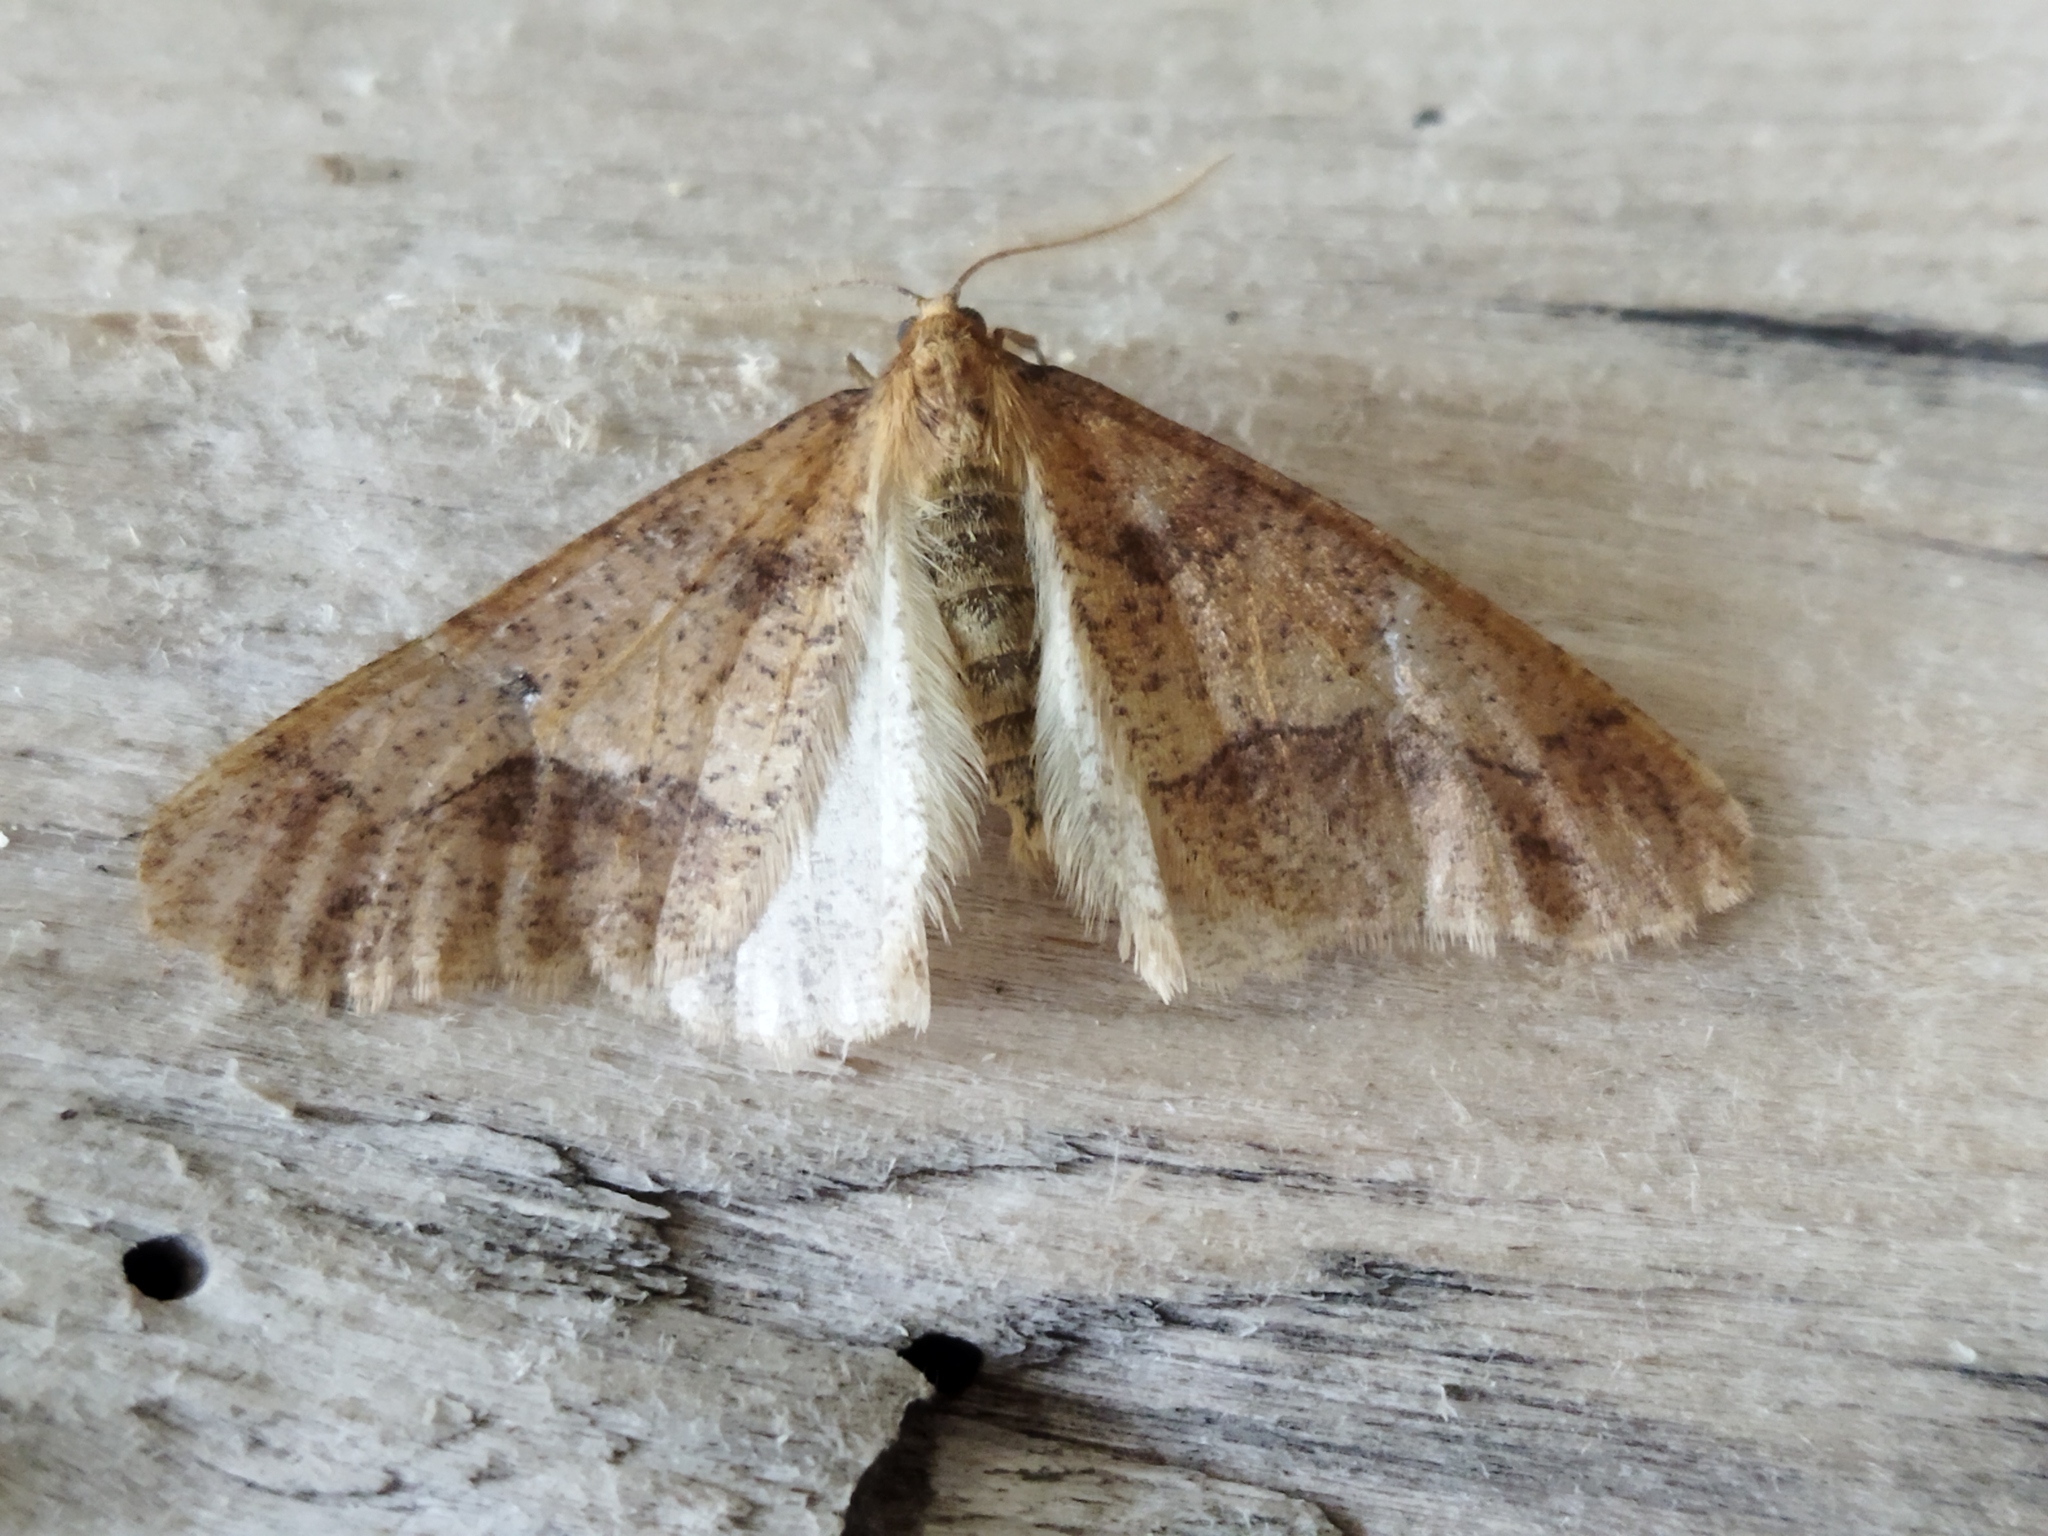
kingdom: Animalia
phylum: Arthropoda
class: Insecta
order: Lepidoptera
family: Geometridae
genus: Agriopis
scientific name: Agriopis marginaria
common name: Dotted border
